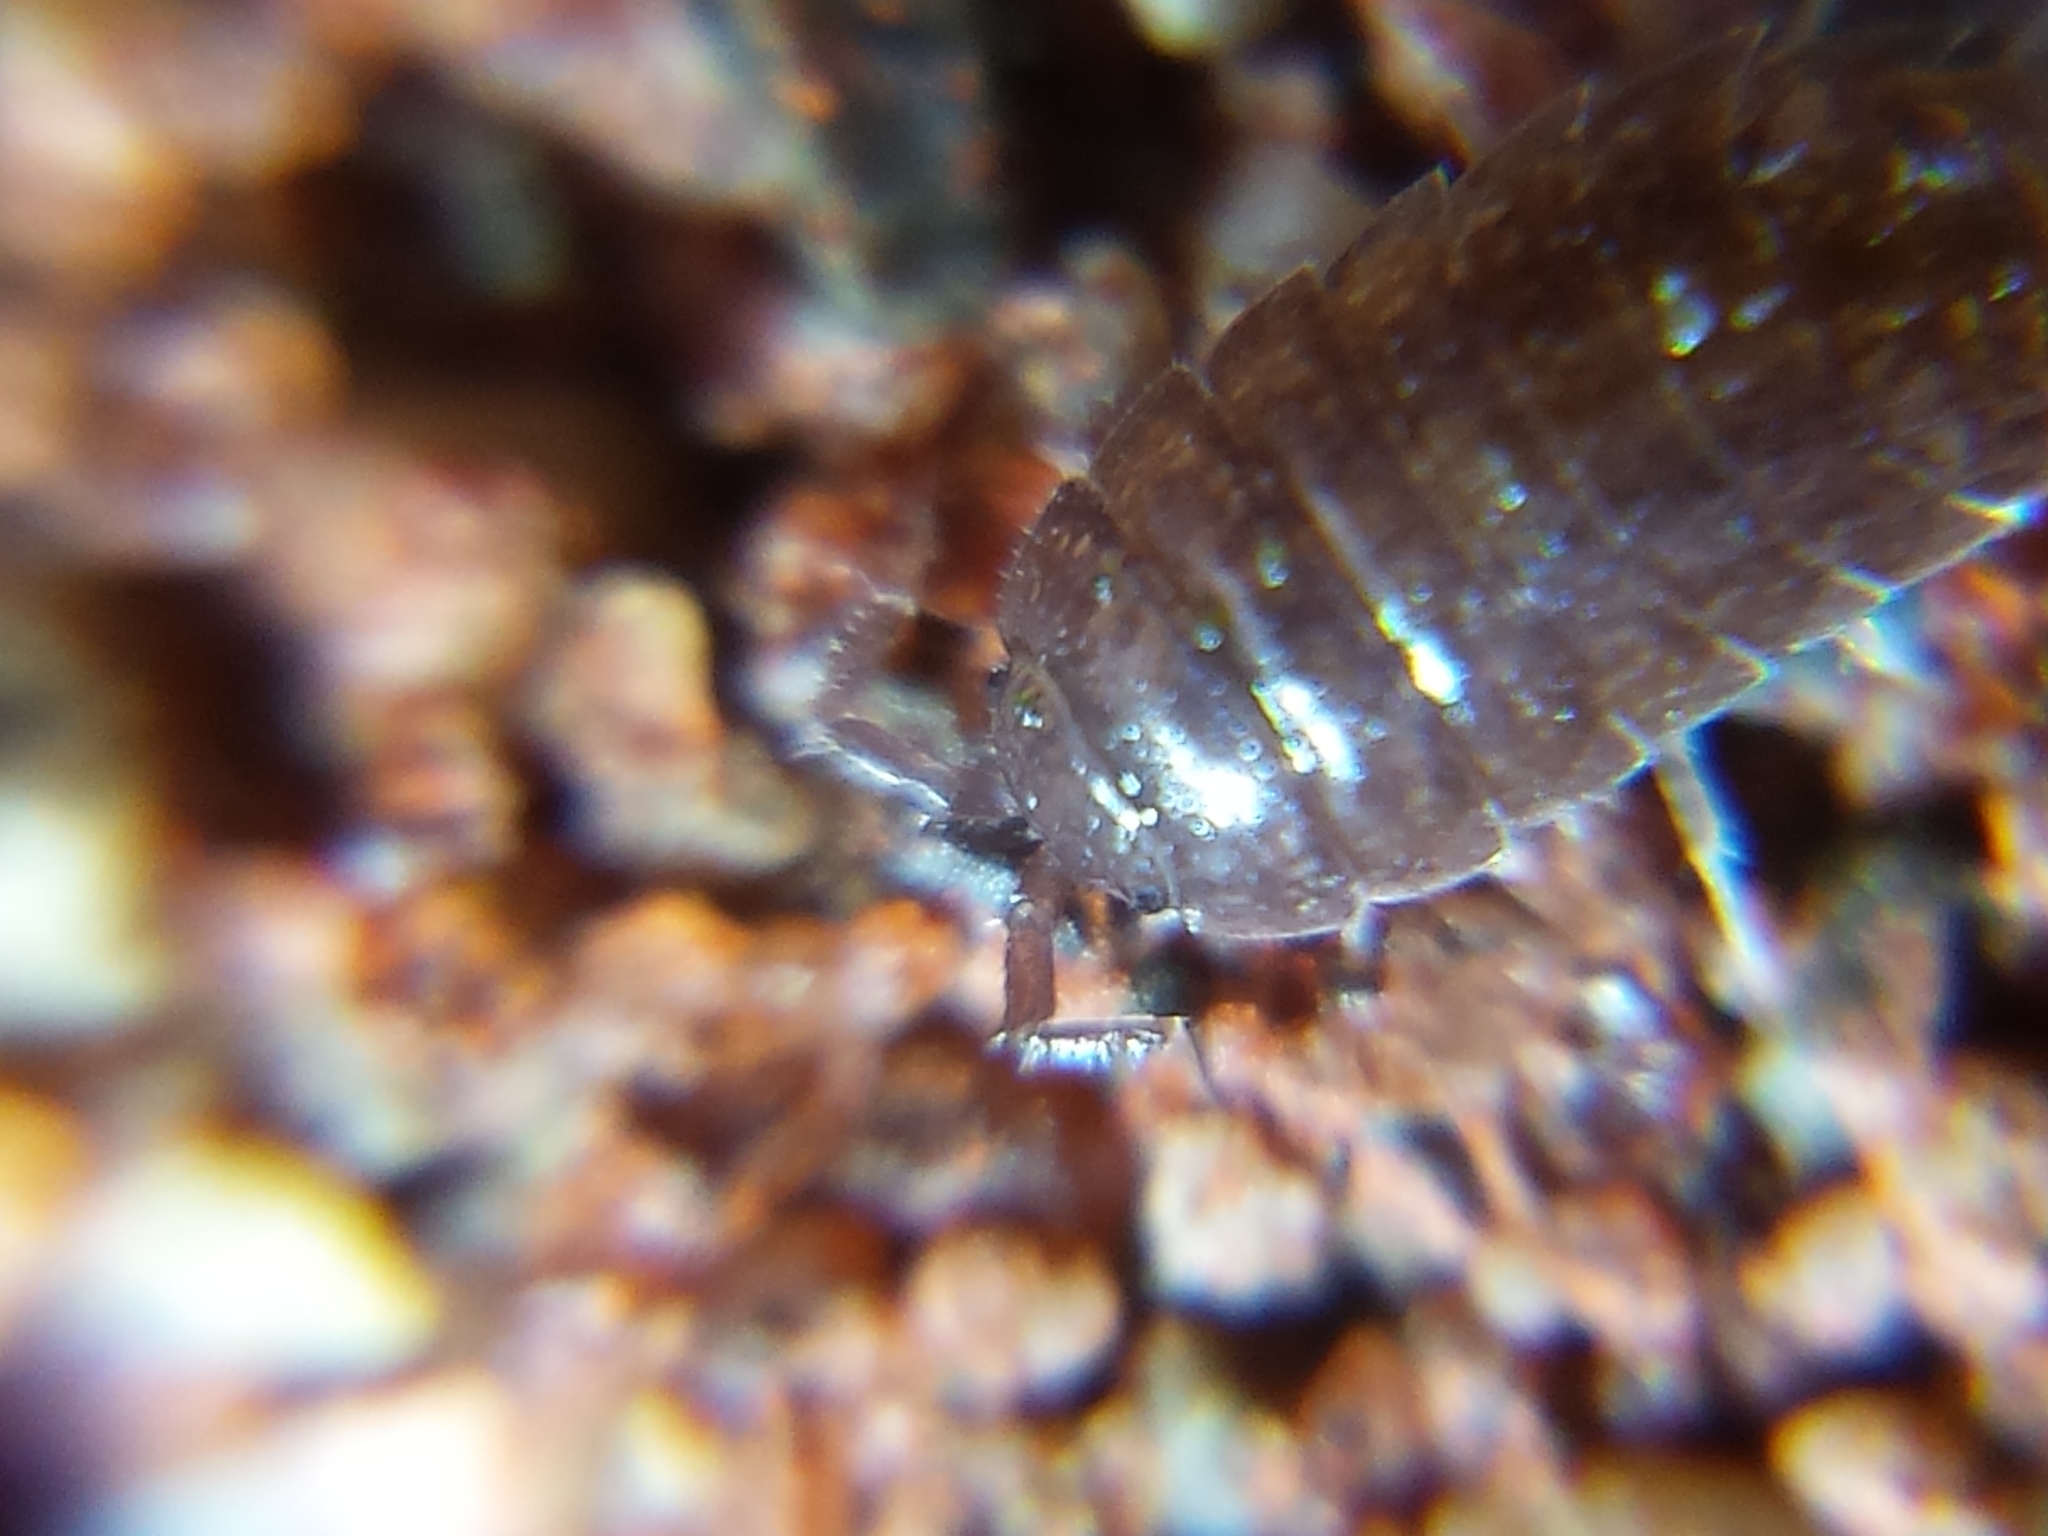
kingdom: Animalia
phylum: Arthropoda
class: Malacostraca
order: Isopoda
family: Trichoniscidae
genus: Hyloniscus
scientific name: Hyloniscus riparius
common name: Isopod
